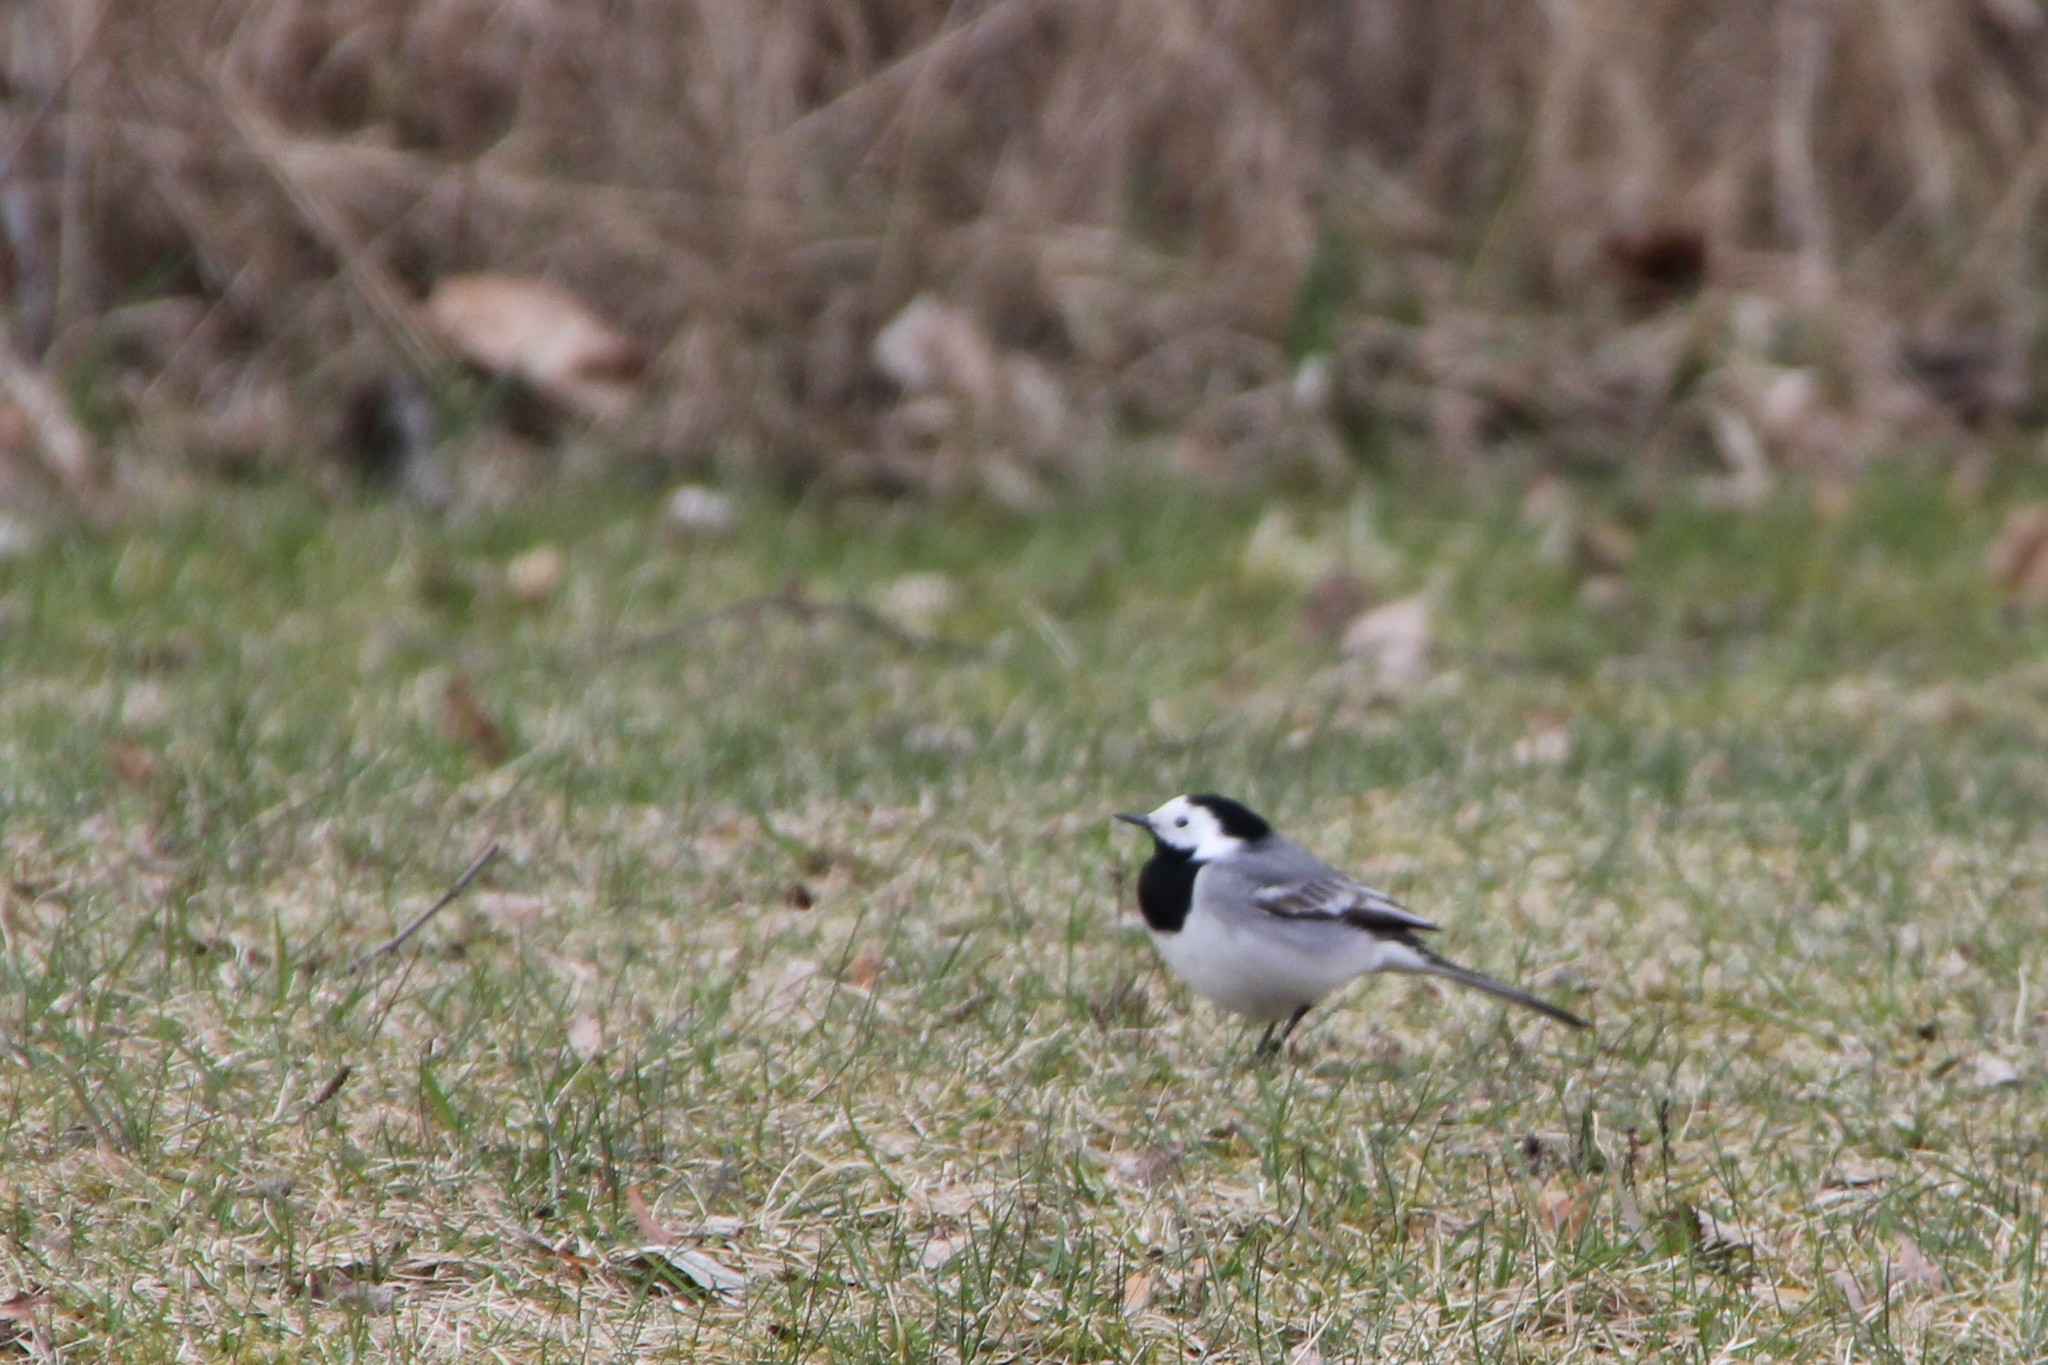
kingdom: Animalia
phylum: Chordata
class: Aves
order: Passeriformes
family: Motacillidae
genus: Motacilla
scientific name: Motacilla alba
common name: White wagtail
